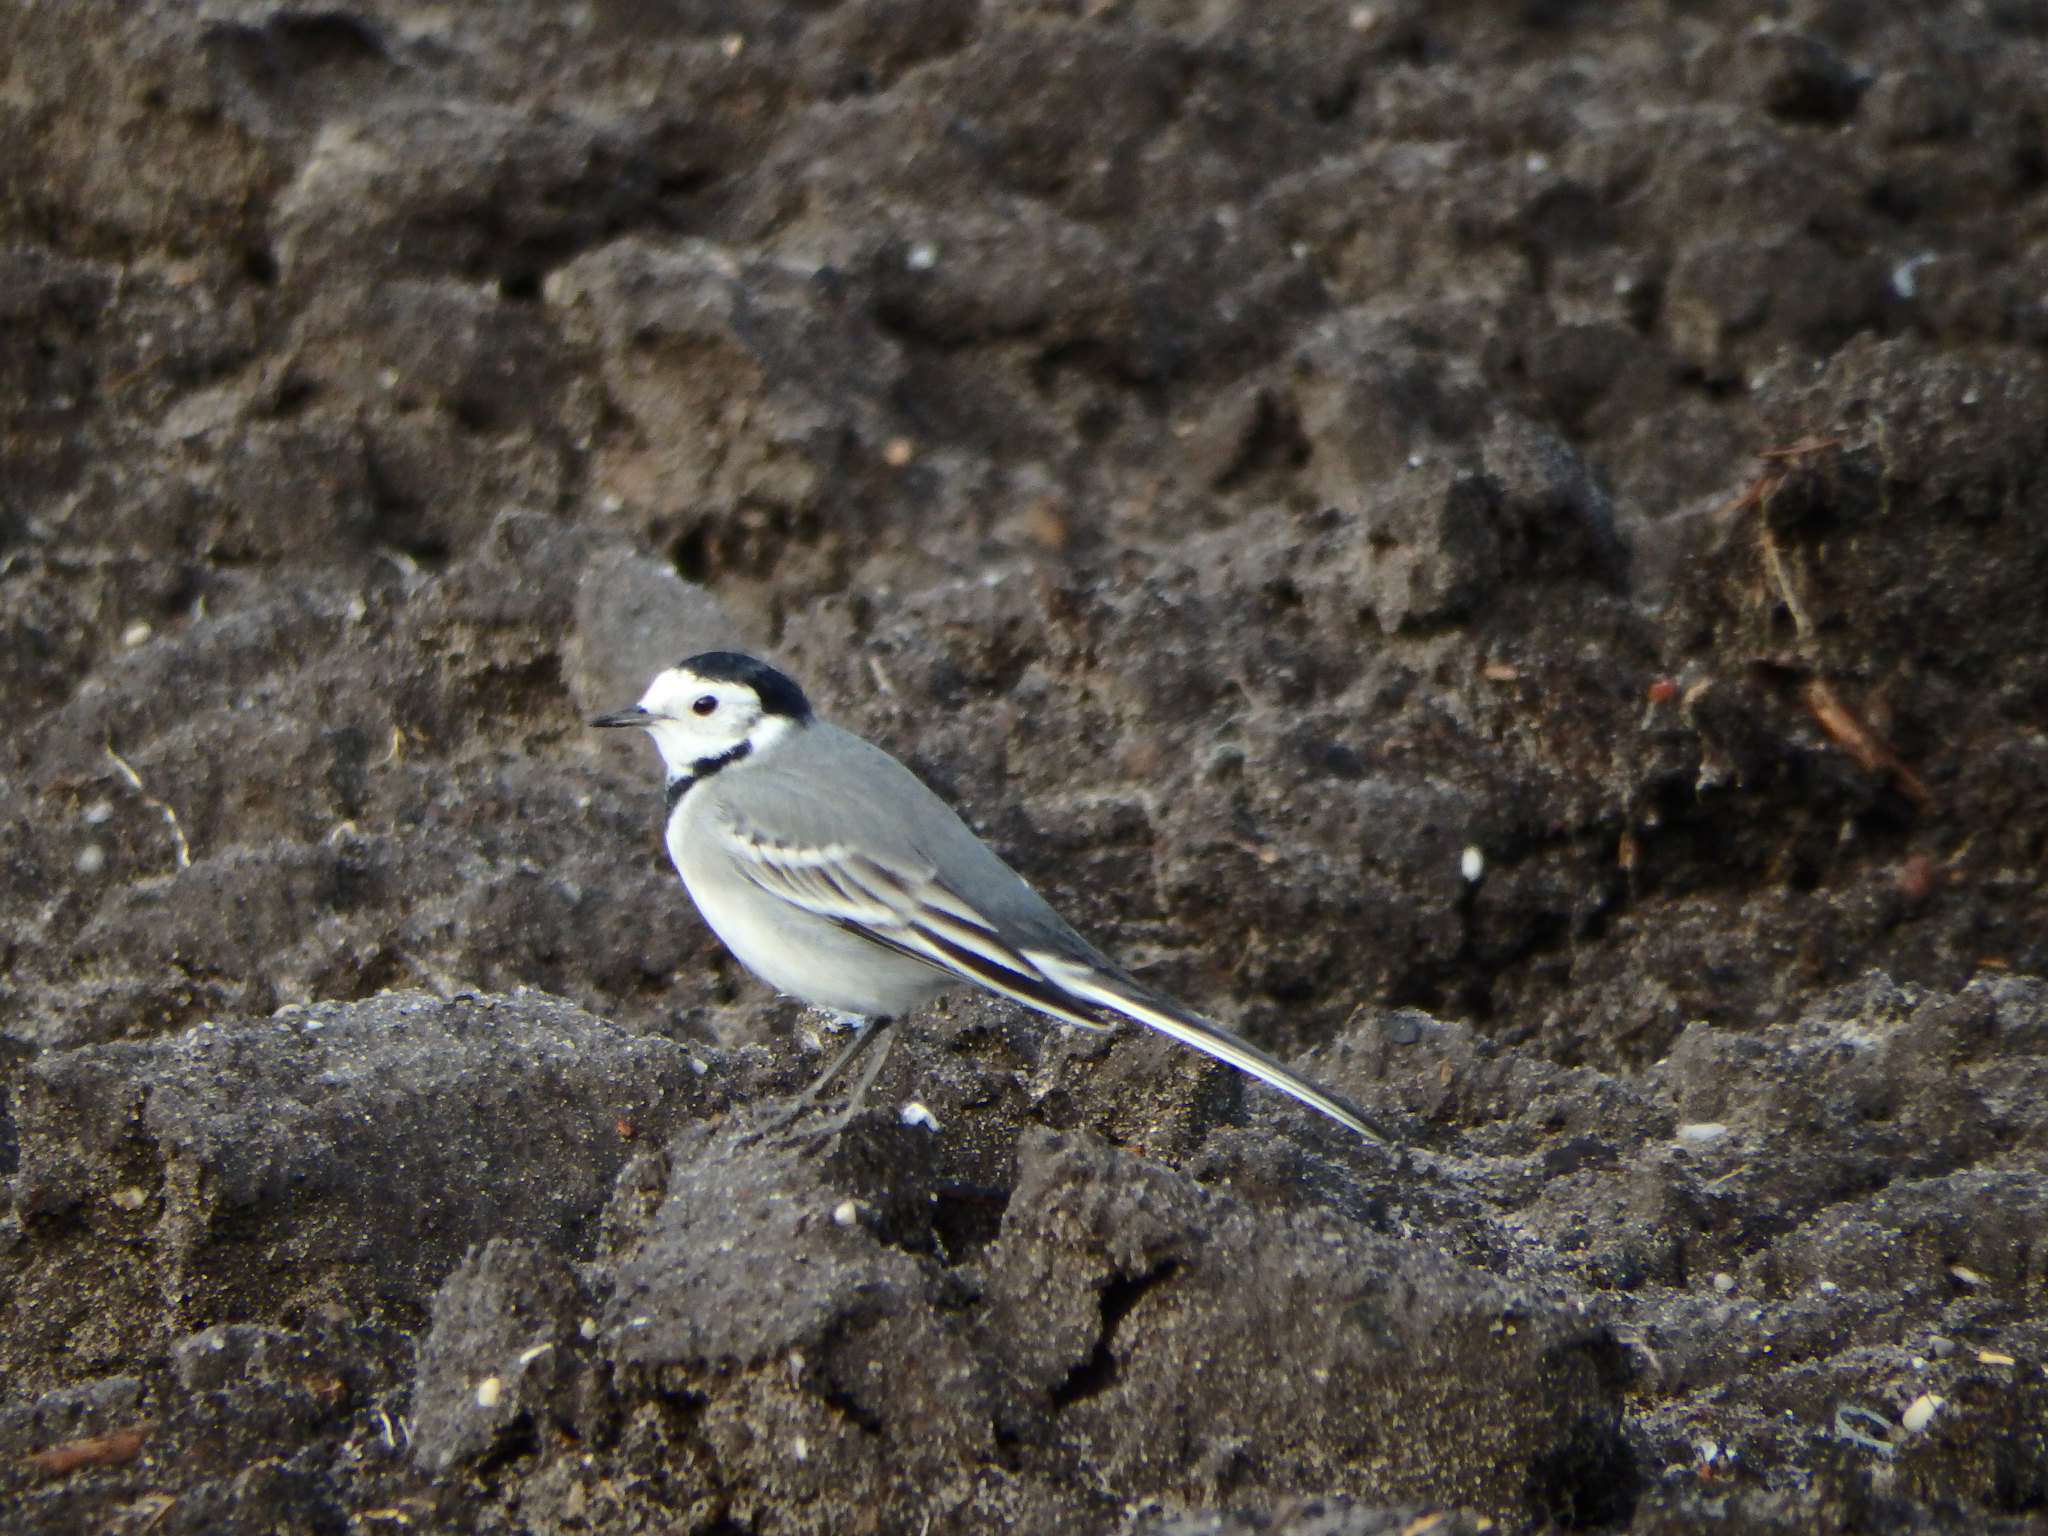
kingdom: Animalia
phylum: Chordata
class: Aves
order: Passeriformes
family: Motacillidae
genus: Motacilla
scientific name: Motacilla alba
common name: White wagtail
